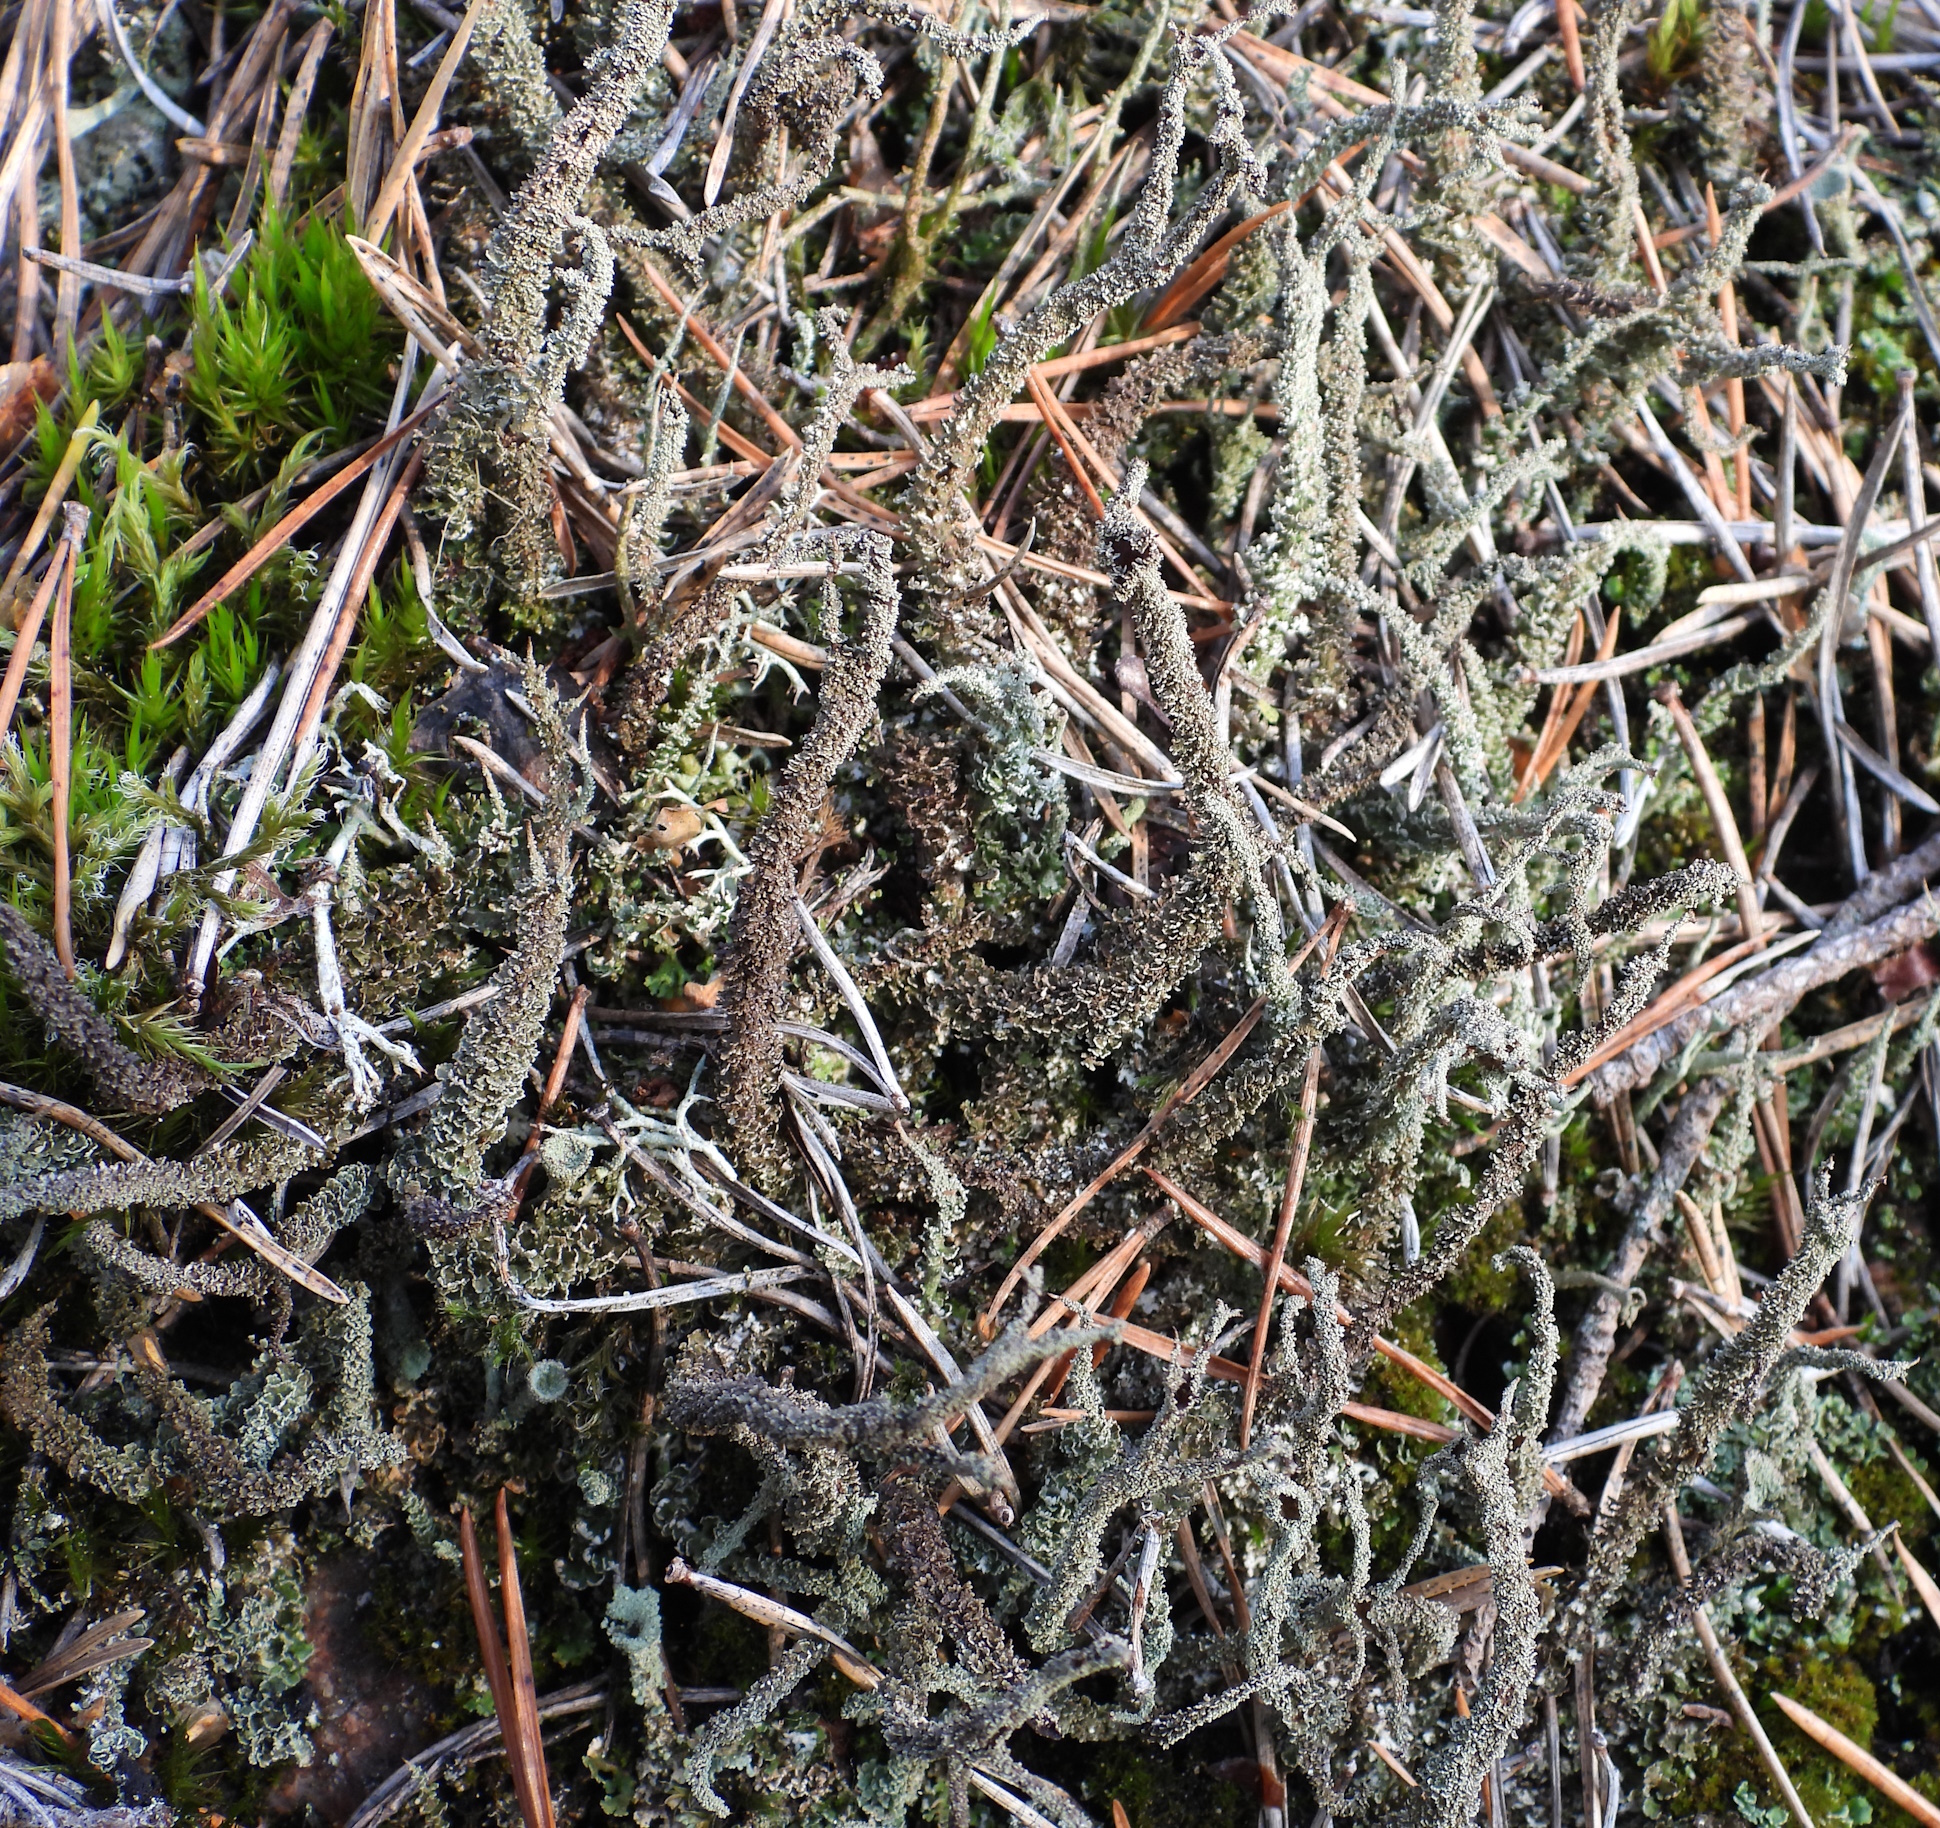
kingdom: Fungi
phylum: Ascomycota
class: Lecanoromycetes
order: Lecanorales
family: Cladoniaceae
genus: Cladonia
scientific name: Cladonia squamosa
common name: Dragon horn
